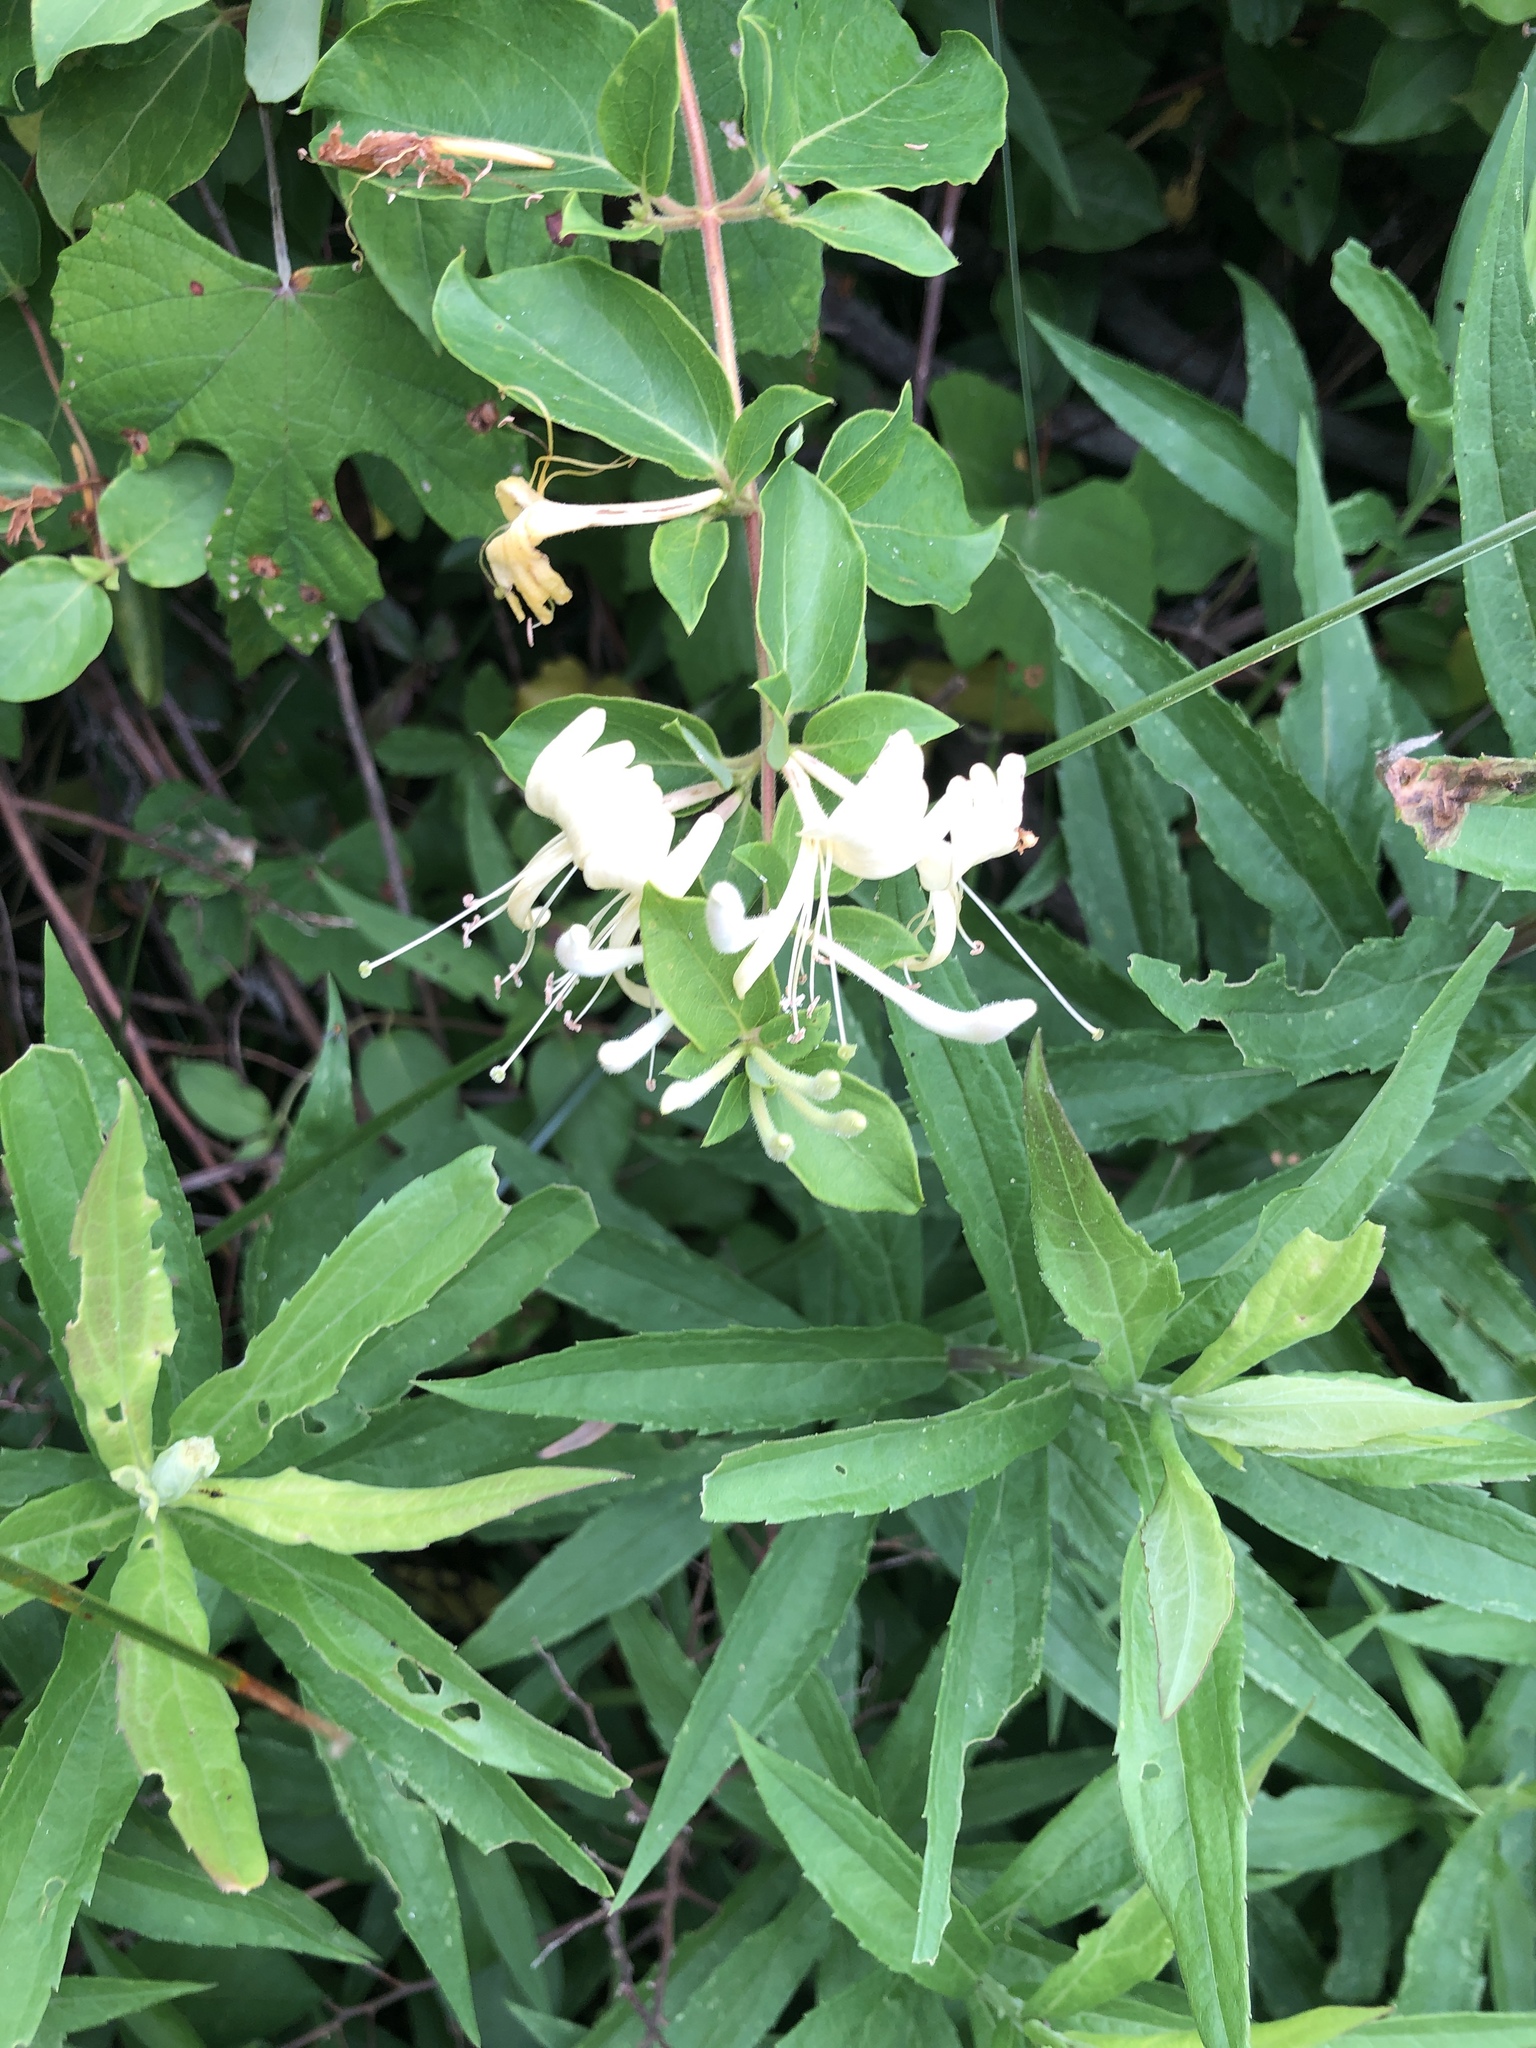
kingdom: Plantae
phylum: Tracheophyta
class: Magnoliopsida
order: Dipsacales
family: Caprifoliaceae
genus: Lonicera
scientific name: Lonicera japonica
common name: Japanese honeysuckle
